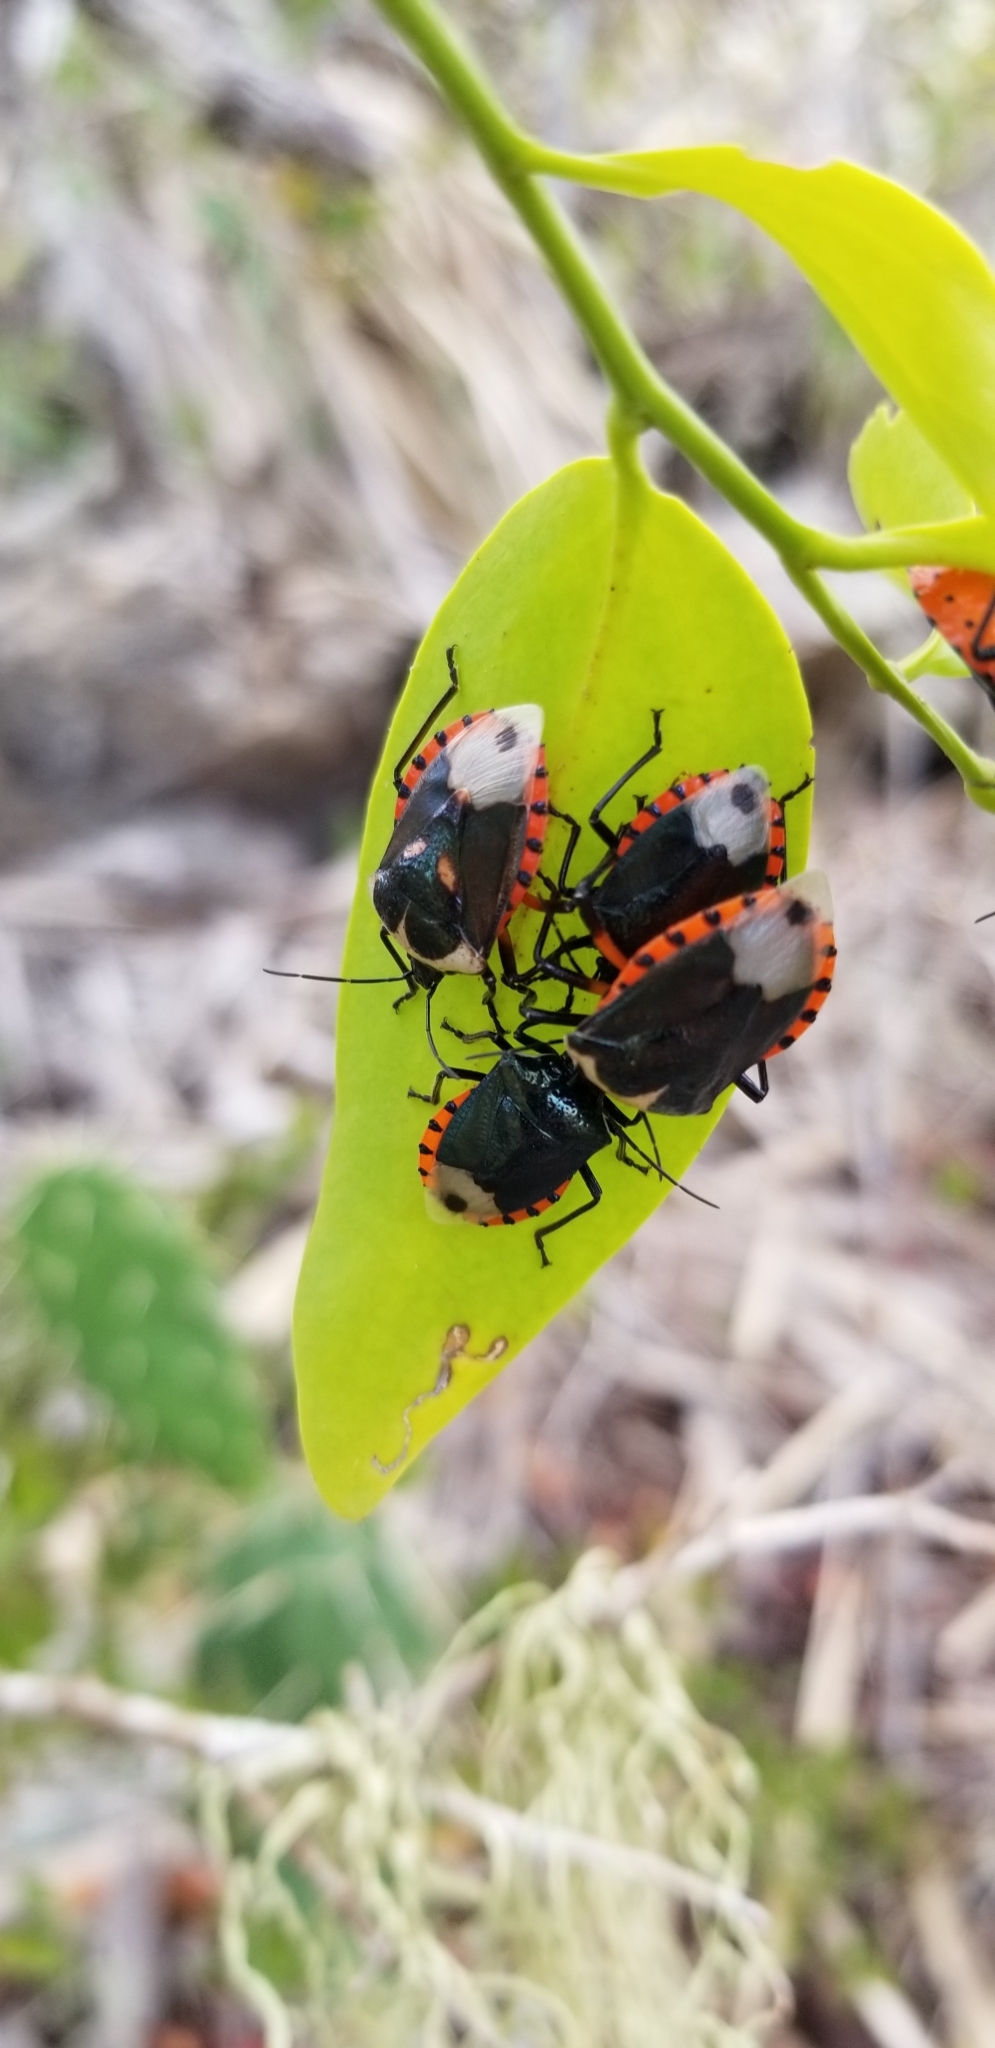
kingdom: Animalia
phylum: Arthropoda
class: Insecta
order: Hemiptera
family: Pentatomidae
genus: Vulsirea
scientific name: Vulsirea nigrorubra
